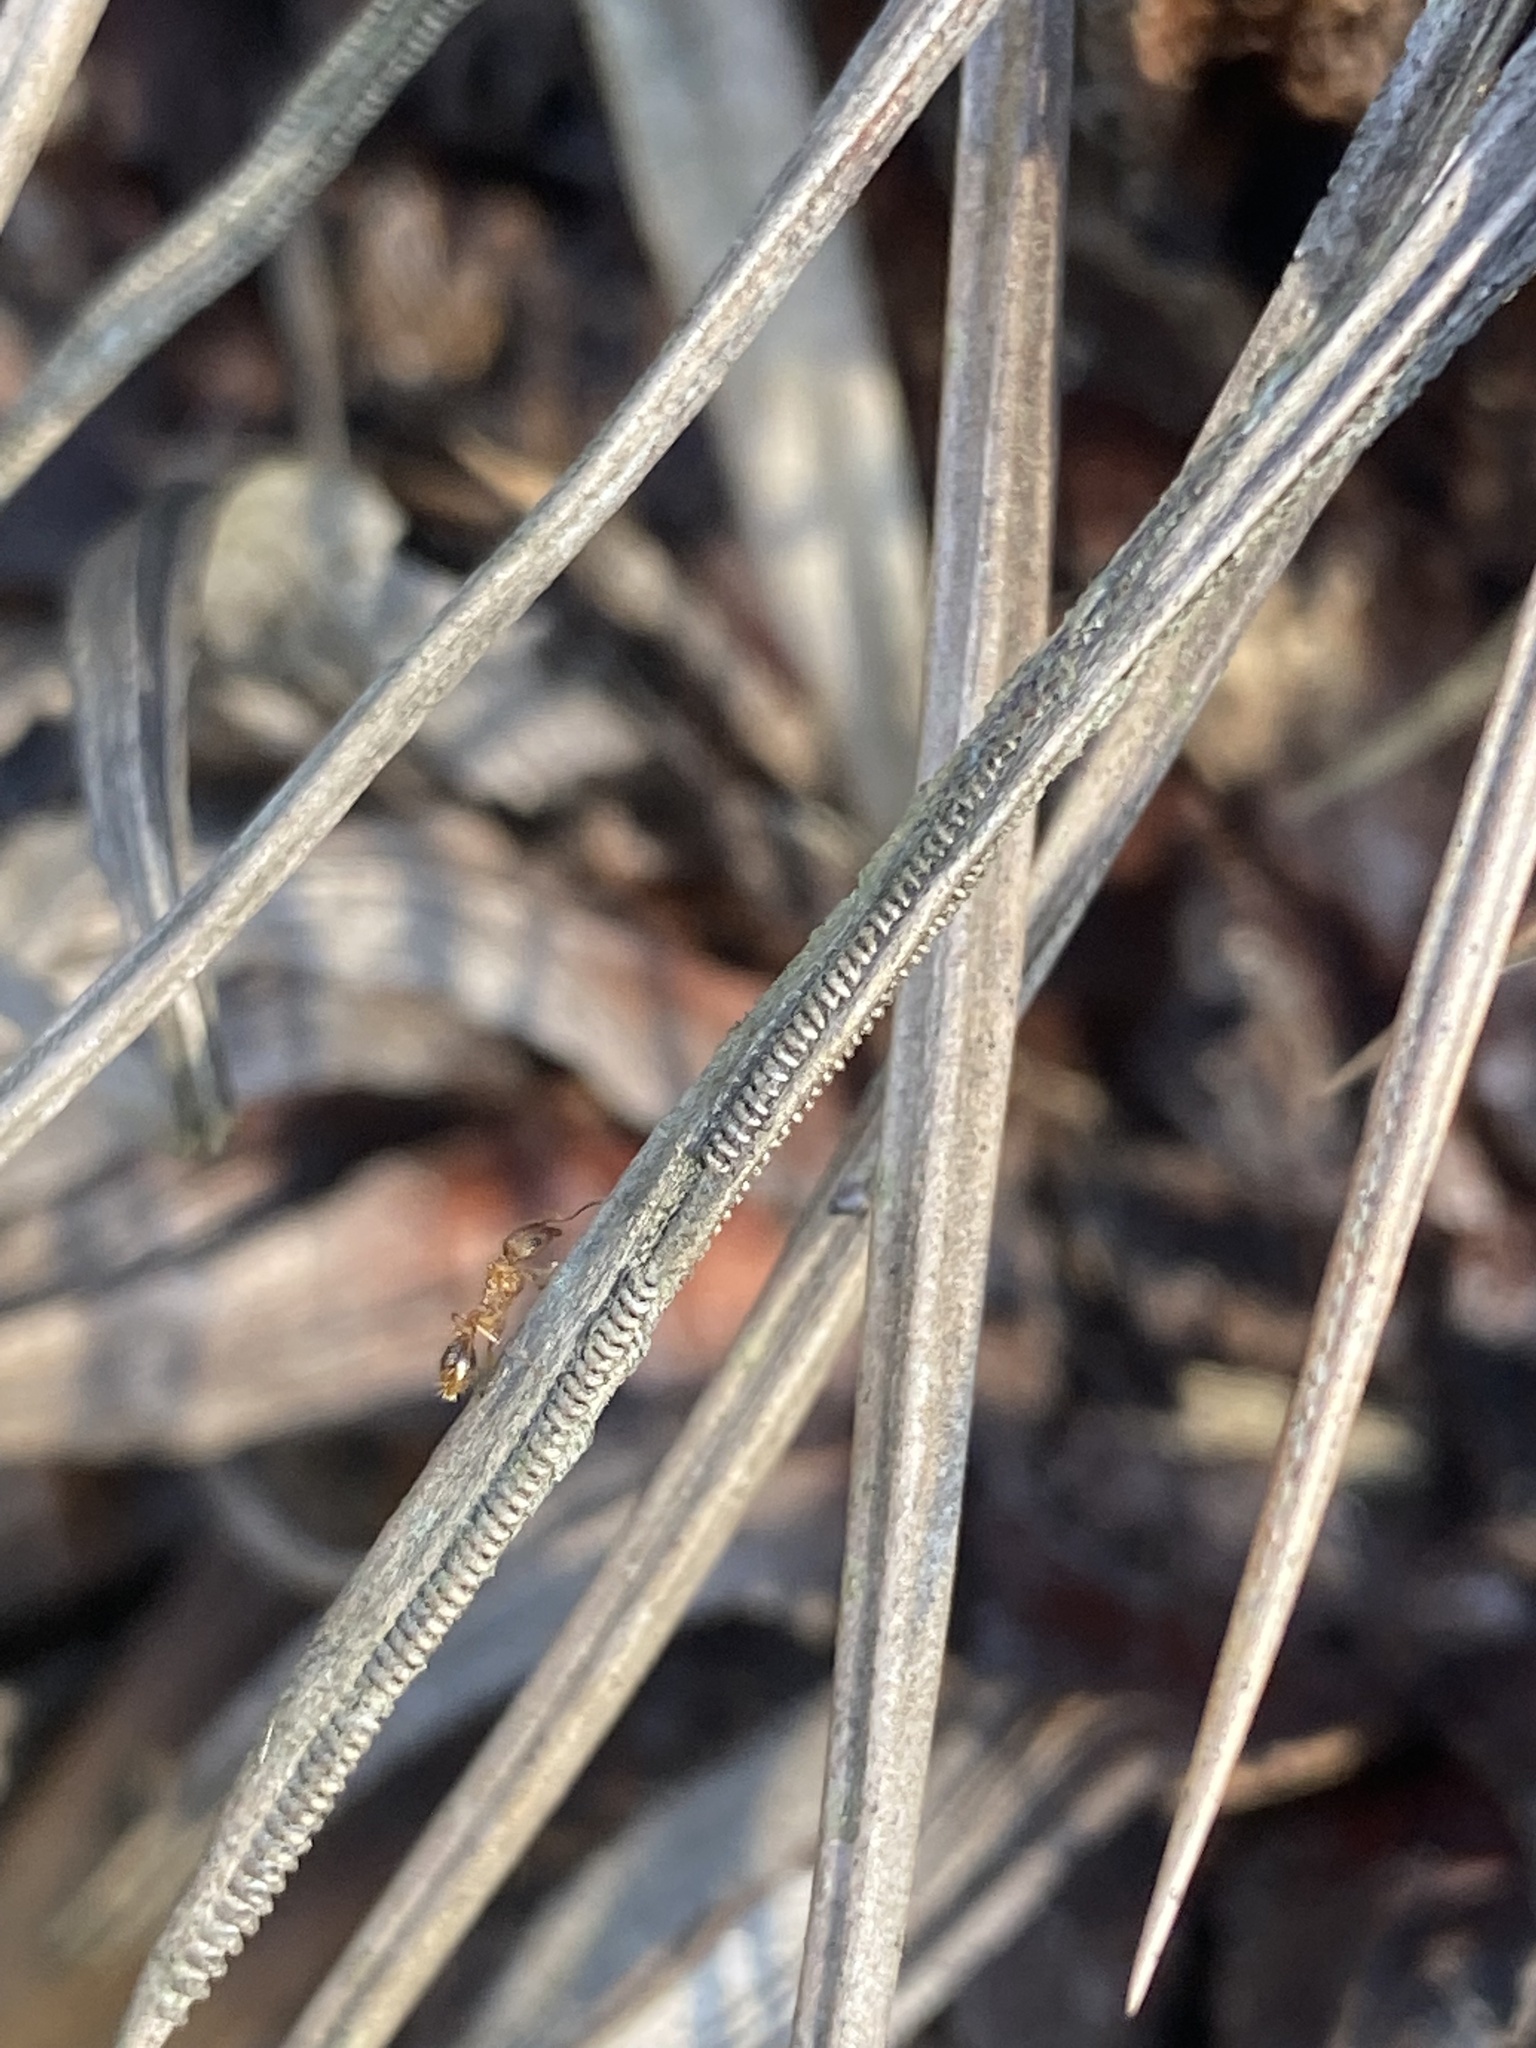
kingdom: Animalia
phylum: Arthropoda
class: Insecta
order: Hymenoptera
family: Formicidae
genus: Tetramorium
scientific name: Tetramorium bicarinatum
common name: Guinea ant
